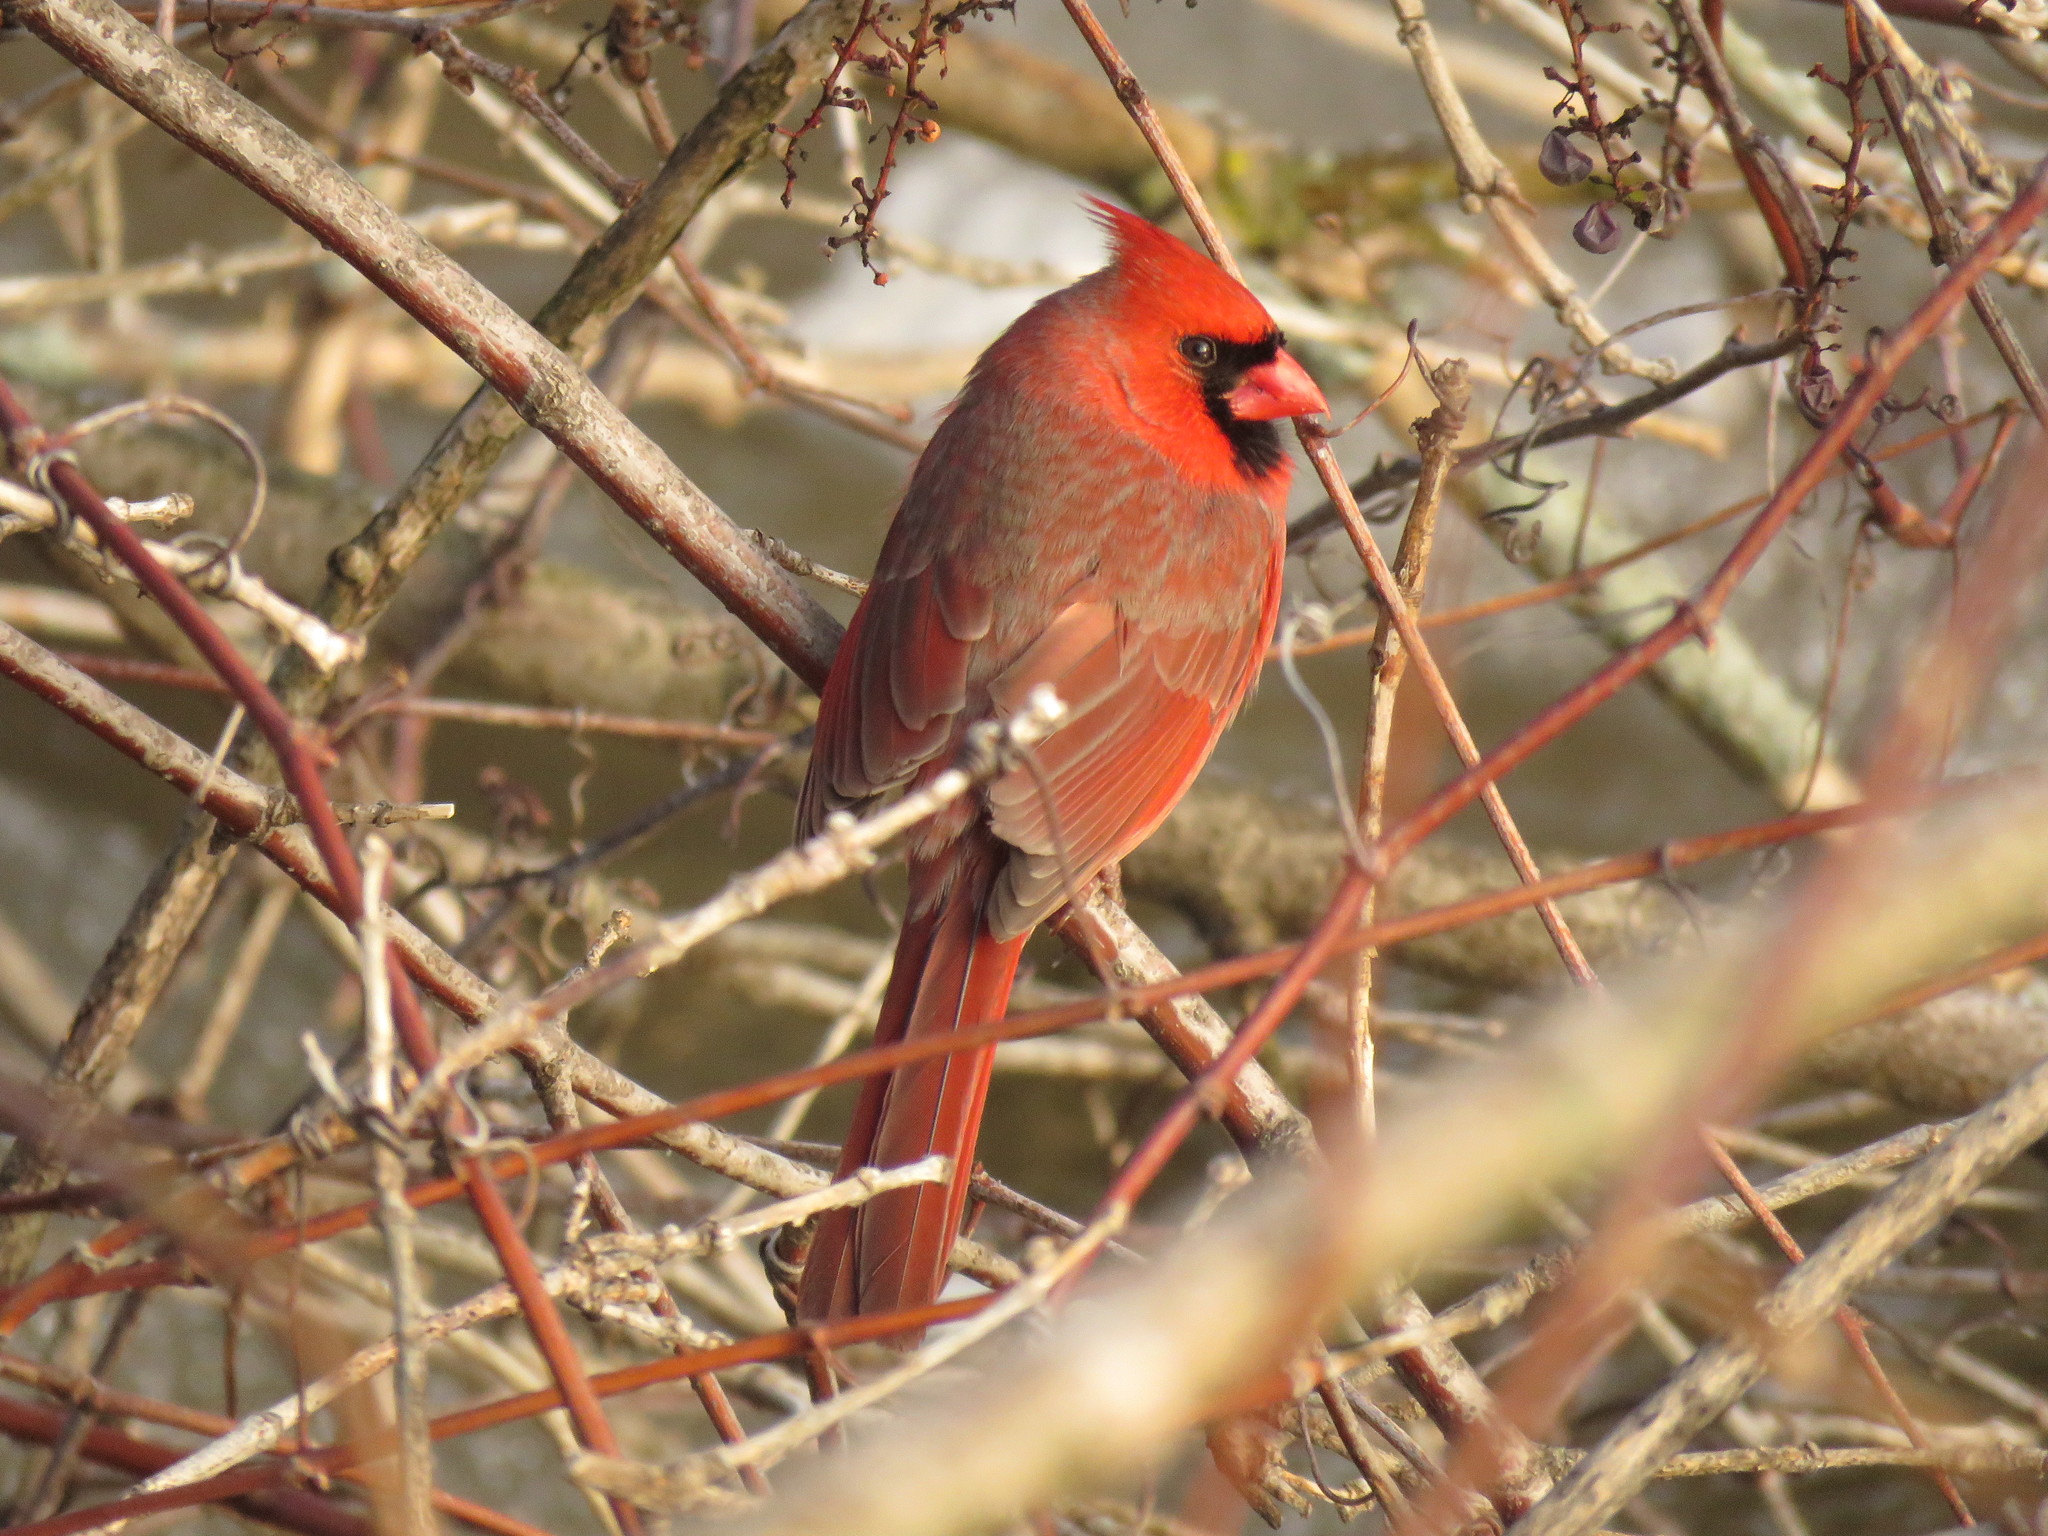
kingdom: Animalia
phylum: Chordata
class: Aves
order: Passeriformes
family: Cardinalidae
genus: Cardinalis
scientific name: Cardinalis cardinalis
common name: Northern cardinal
